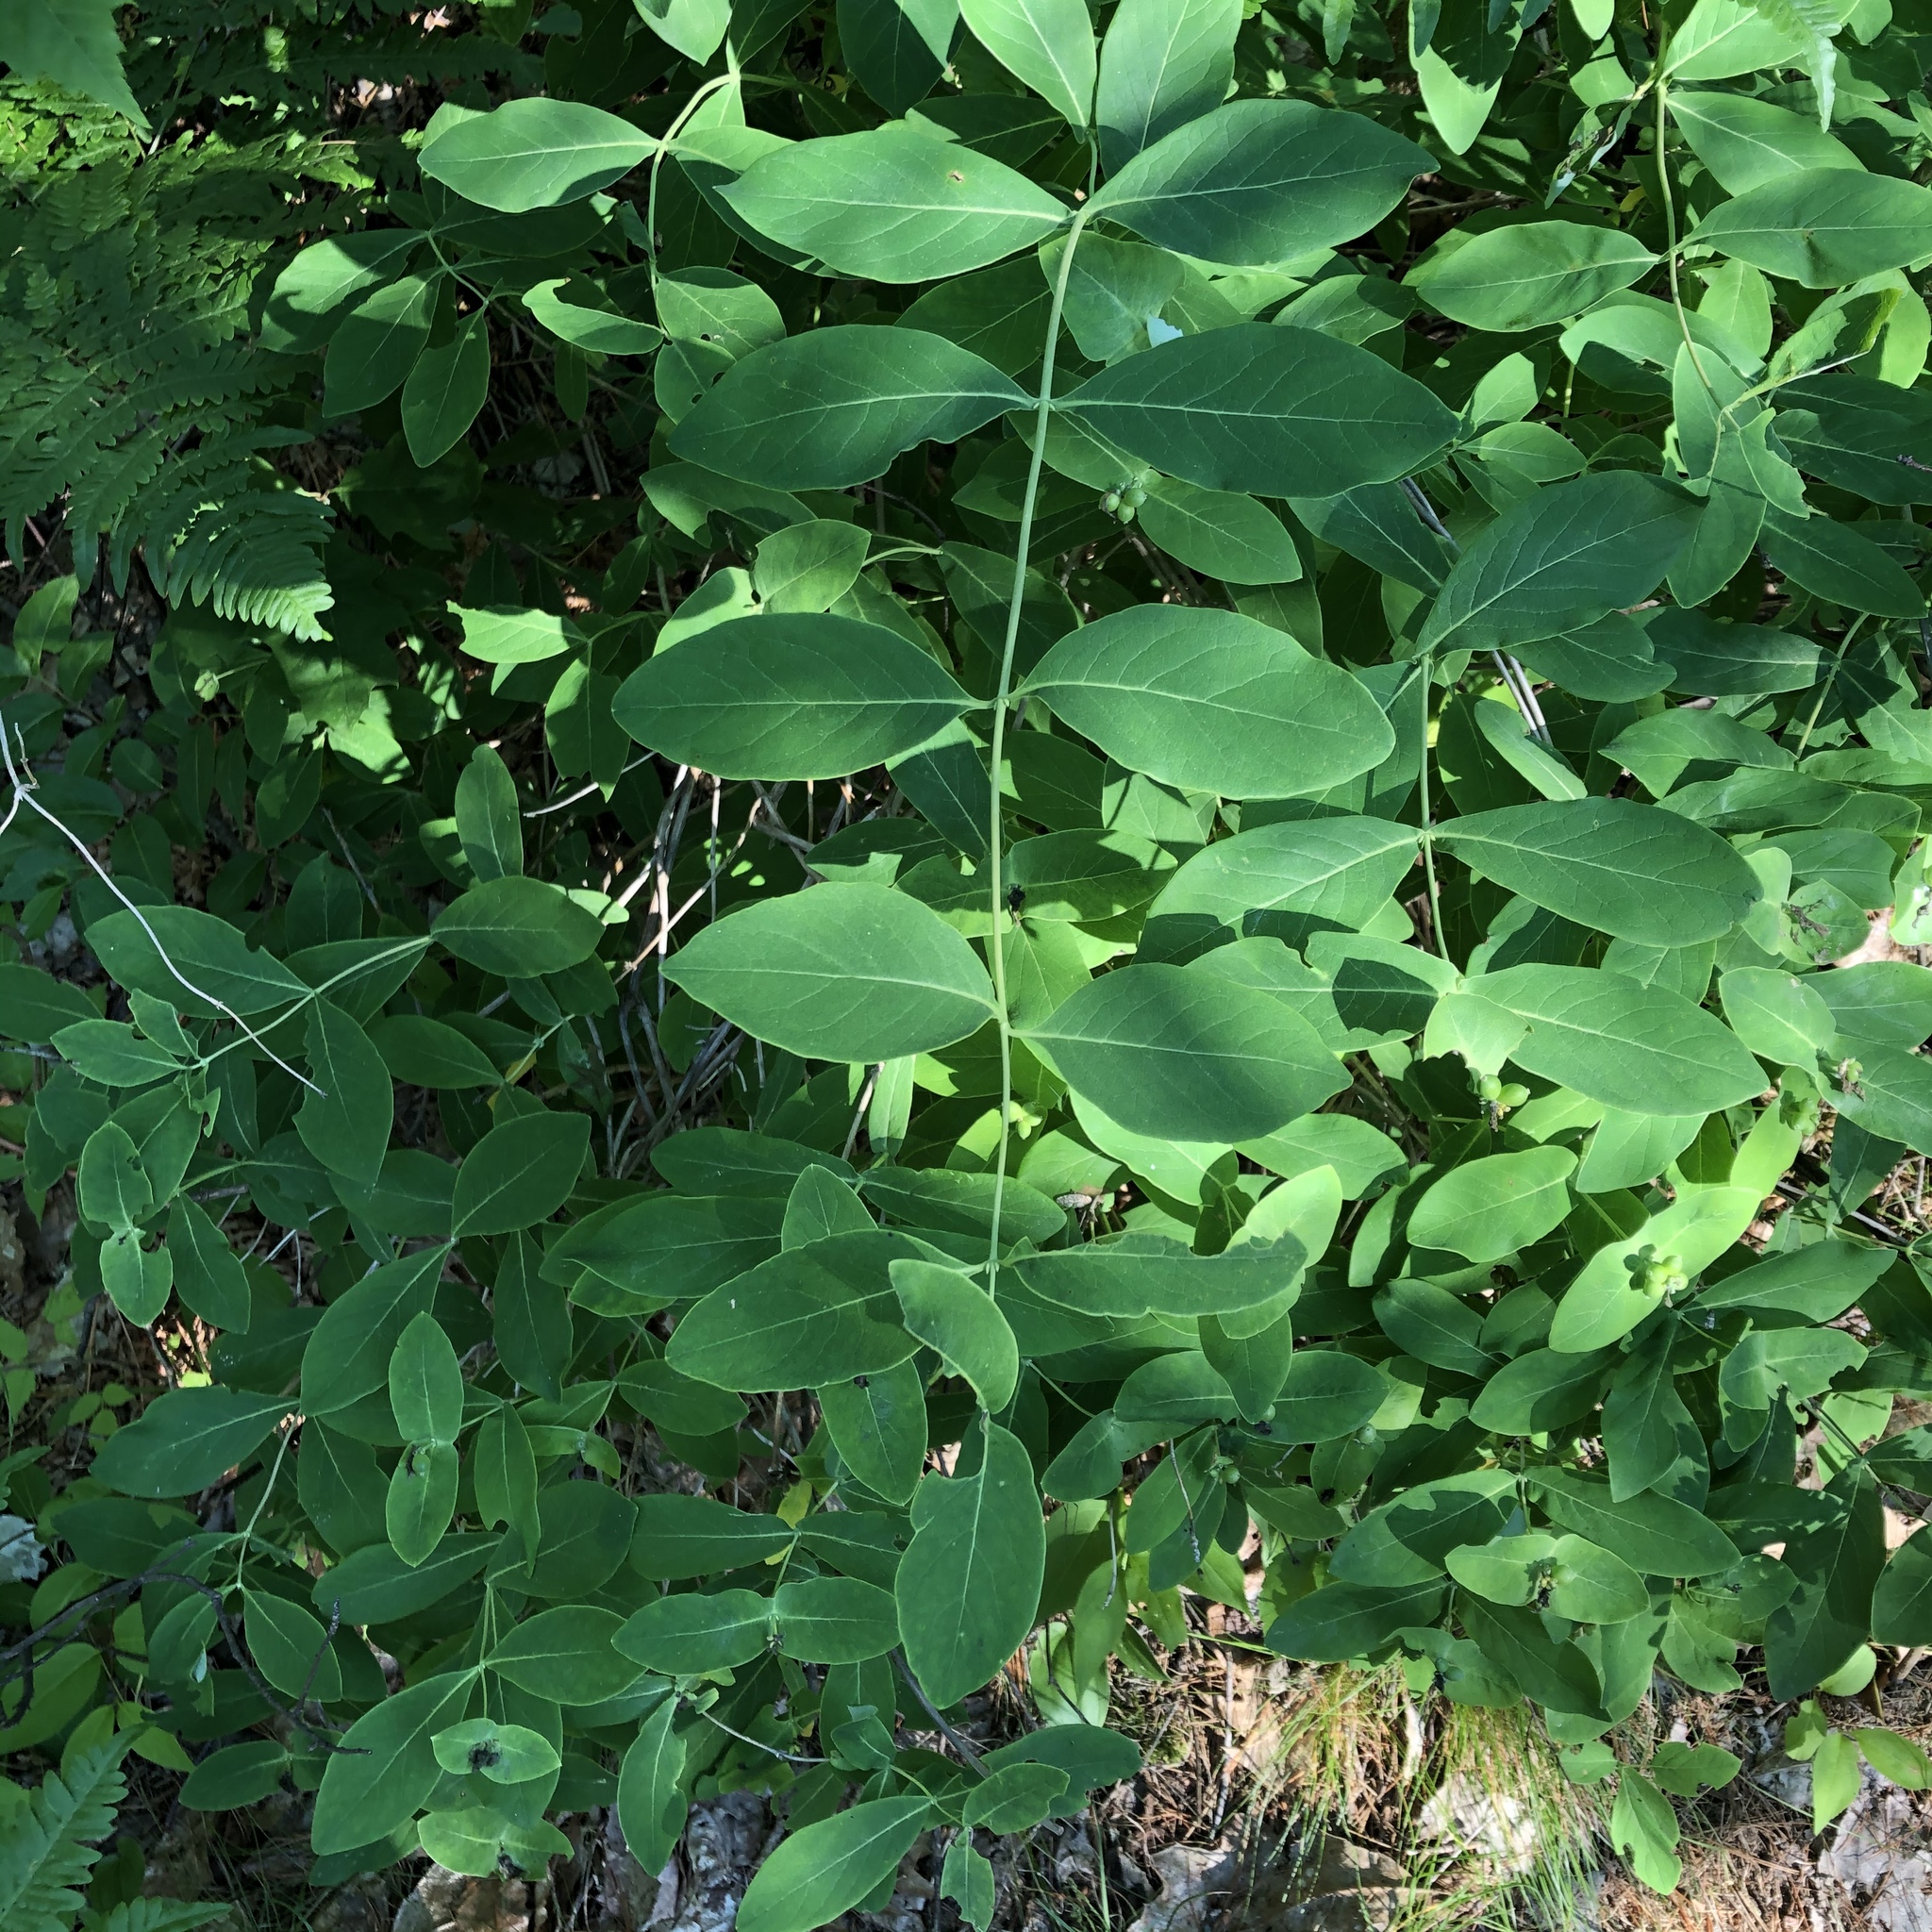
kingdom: Plantae
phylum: Tracheophyta
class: Magnoliopsida
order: Dipsacales
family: Caprifoliaceae
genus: Lonicera
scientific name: Lonicera dioica
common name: Limber honeysuckle
